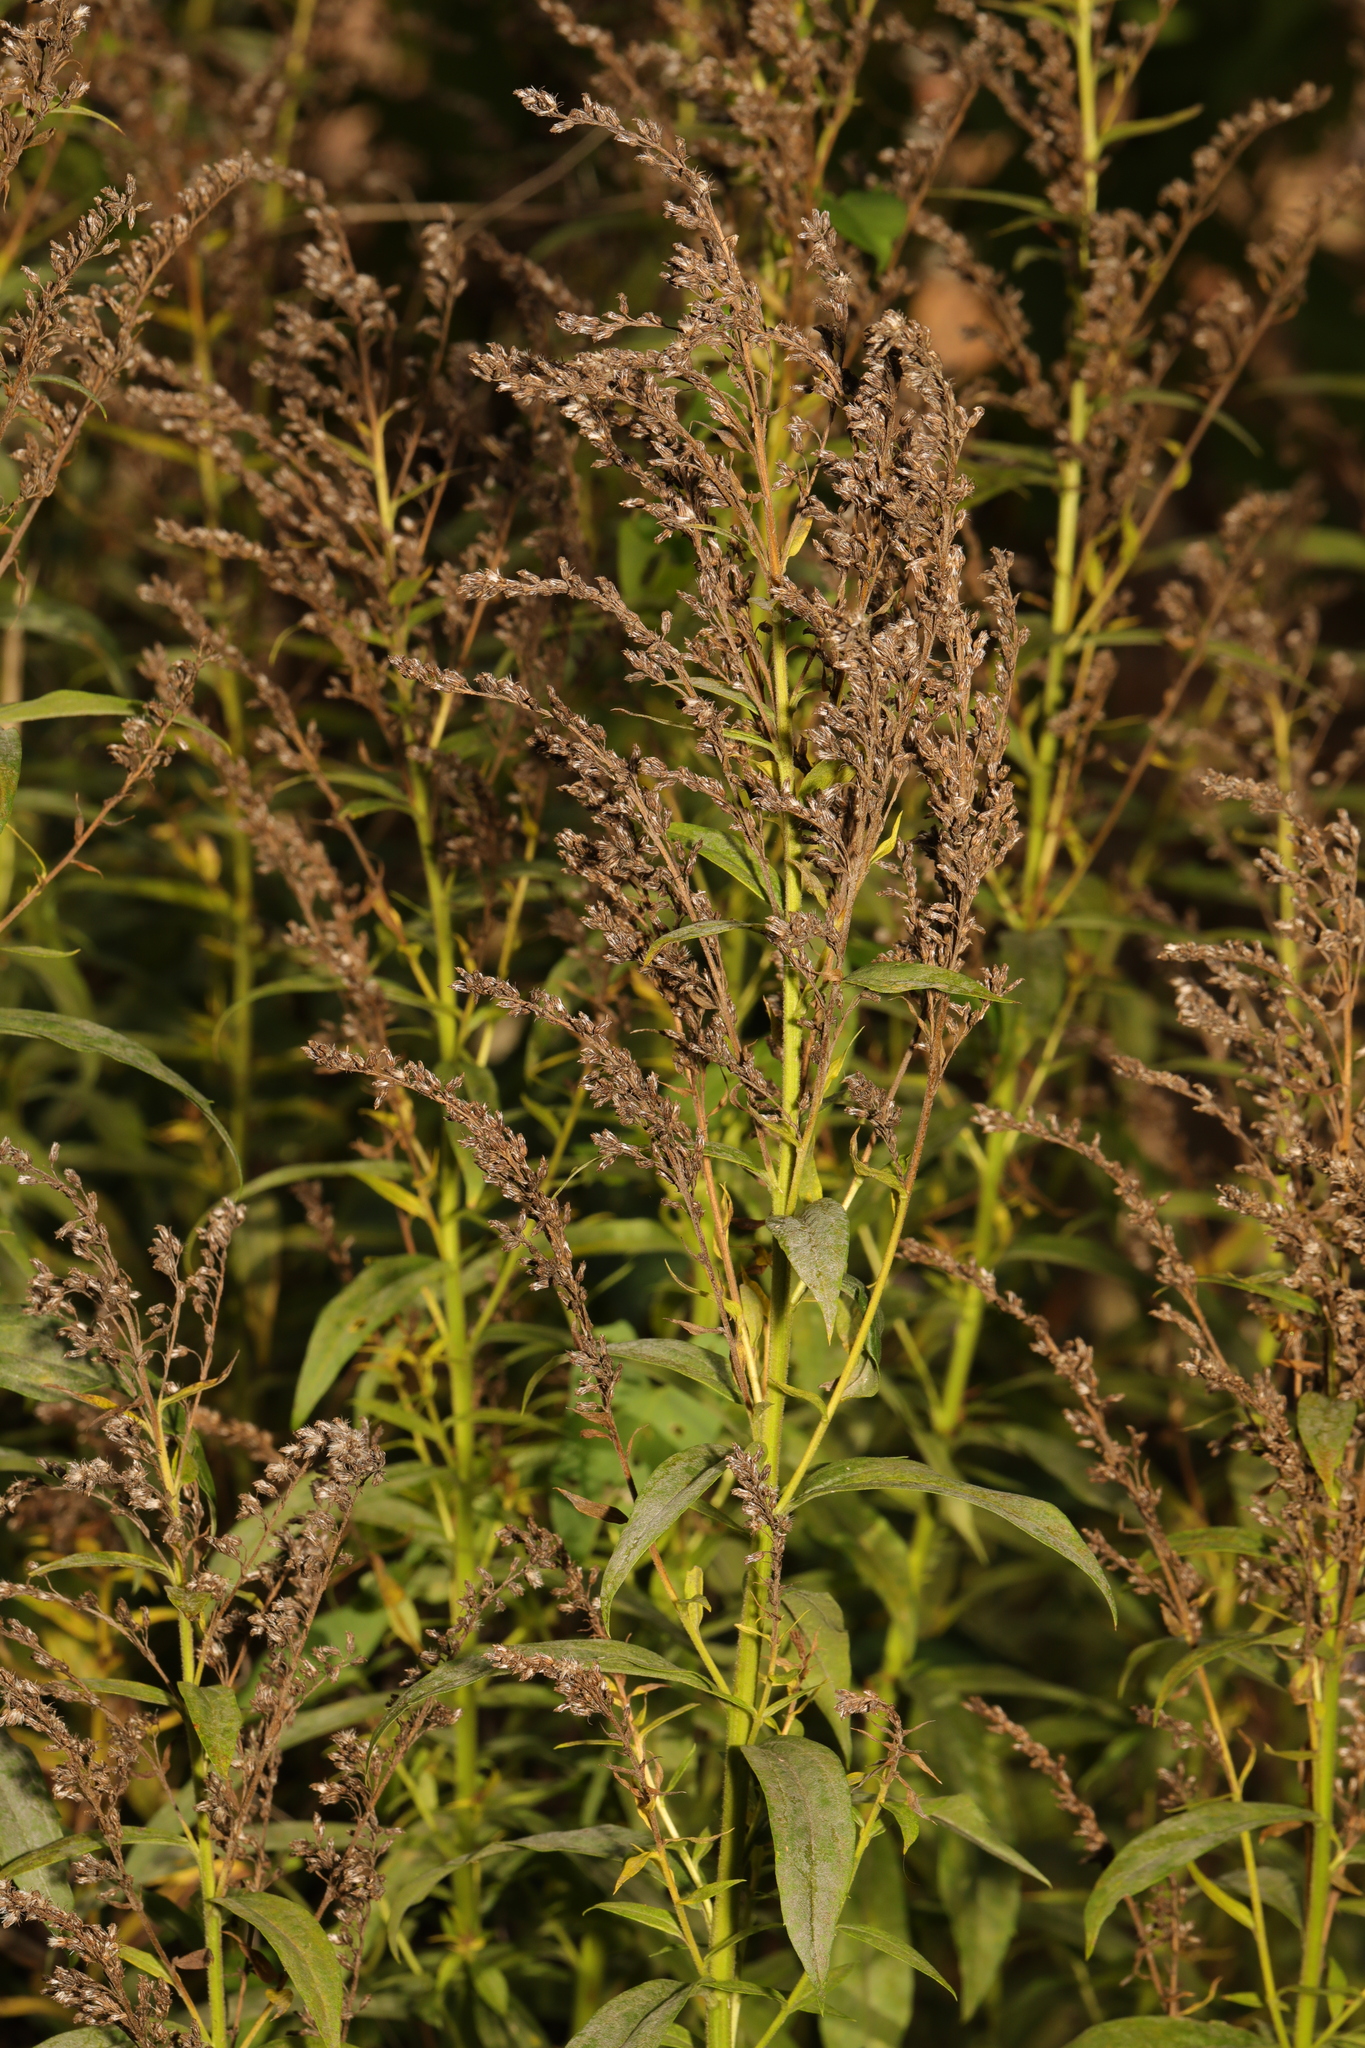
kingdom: Plantae
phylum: Tracheophyta
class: Magnoliopsida
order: Asterales
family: Asteraceae
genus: Solidago
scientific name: Solidago canadensis
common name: Canada goldenrod
